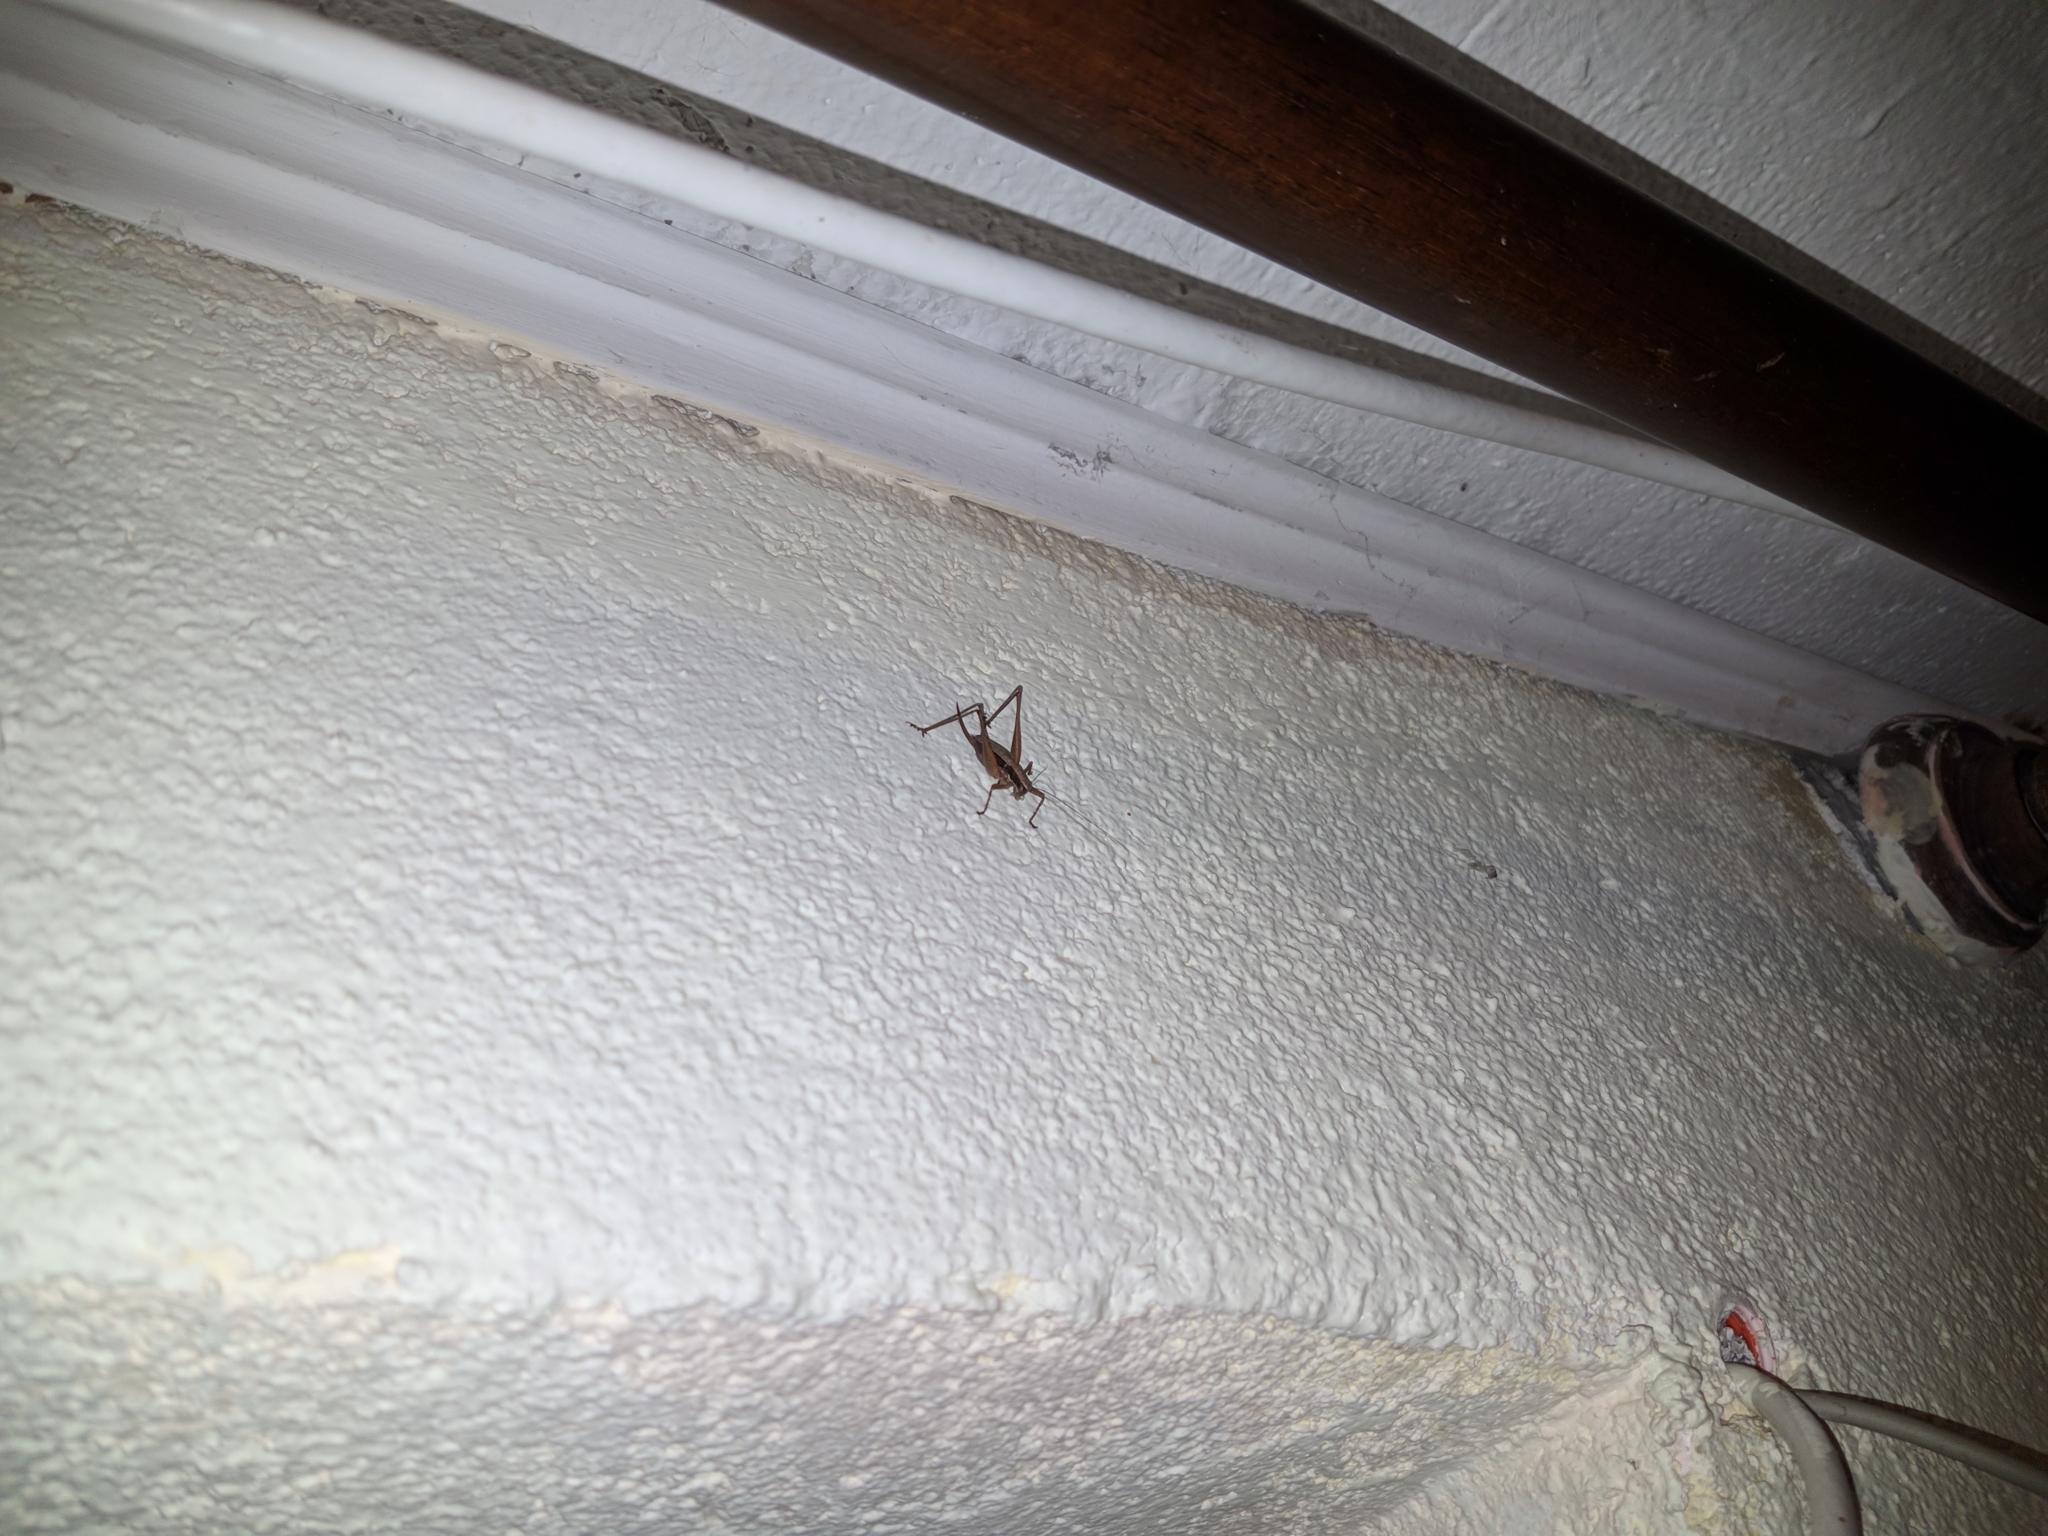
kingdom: Animalia
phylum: Arthropoda
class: Insecta
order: Orthoptera
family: Tettigoniidae
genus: Yersinella
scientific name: Yersinella raymondii
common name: Raymond's bush-cricket
